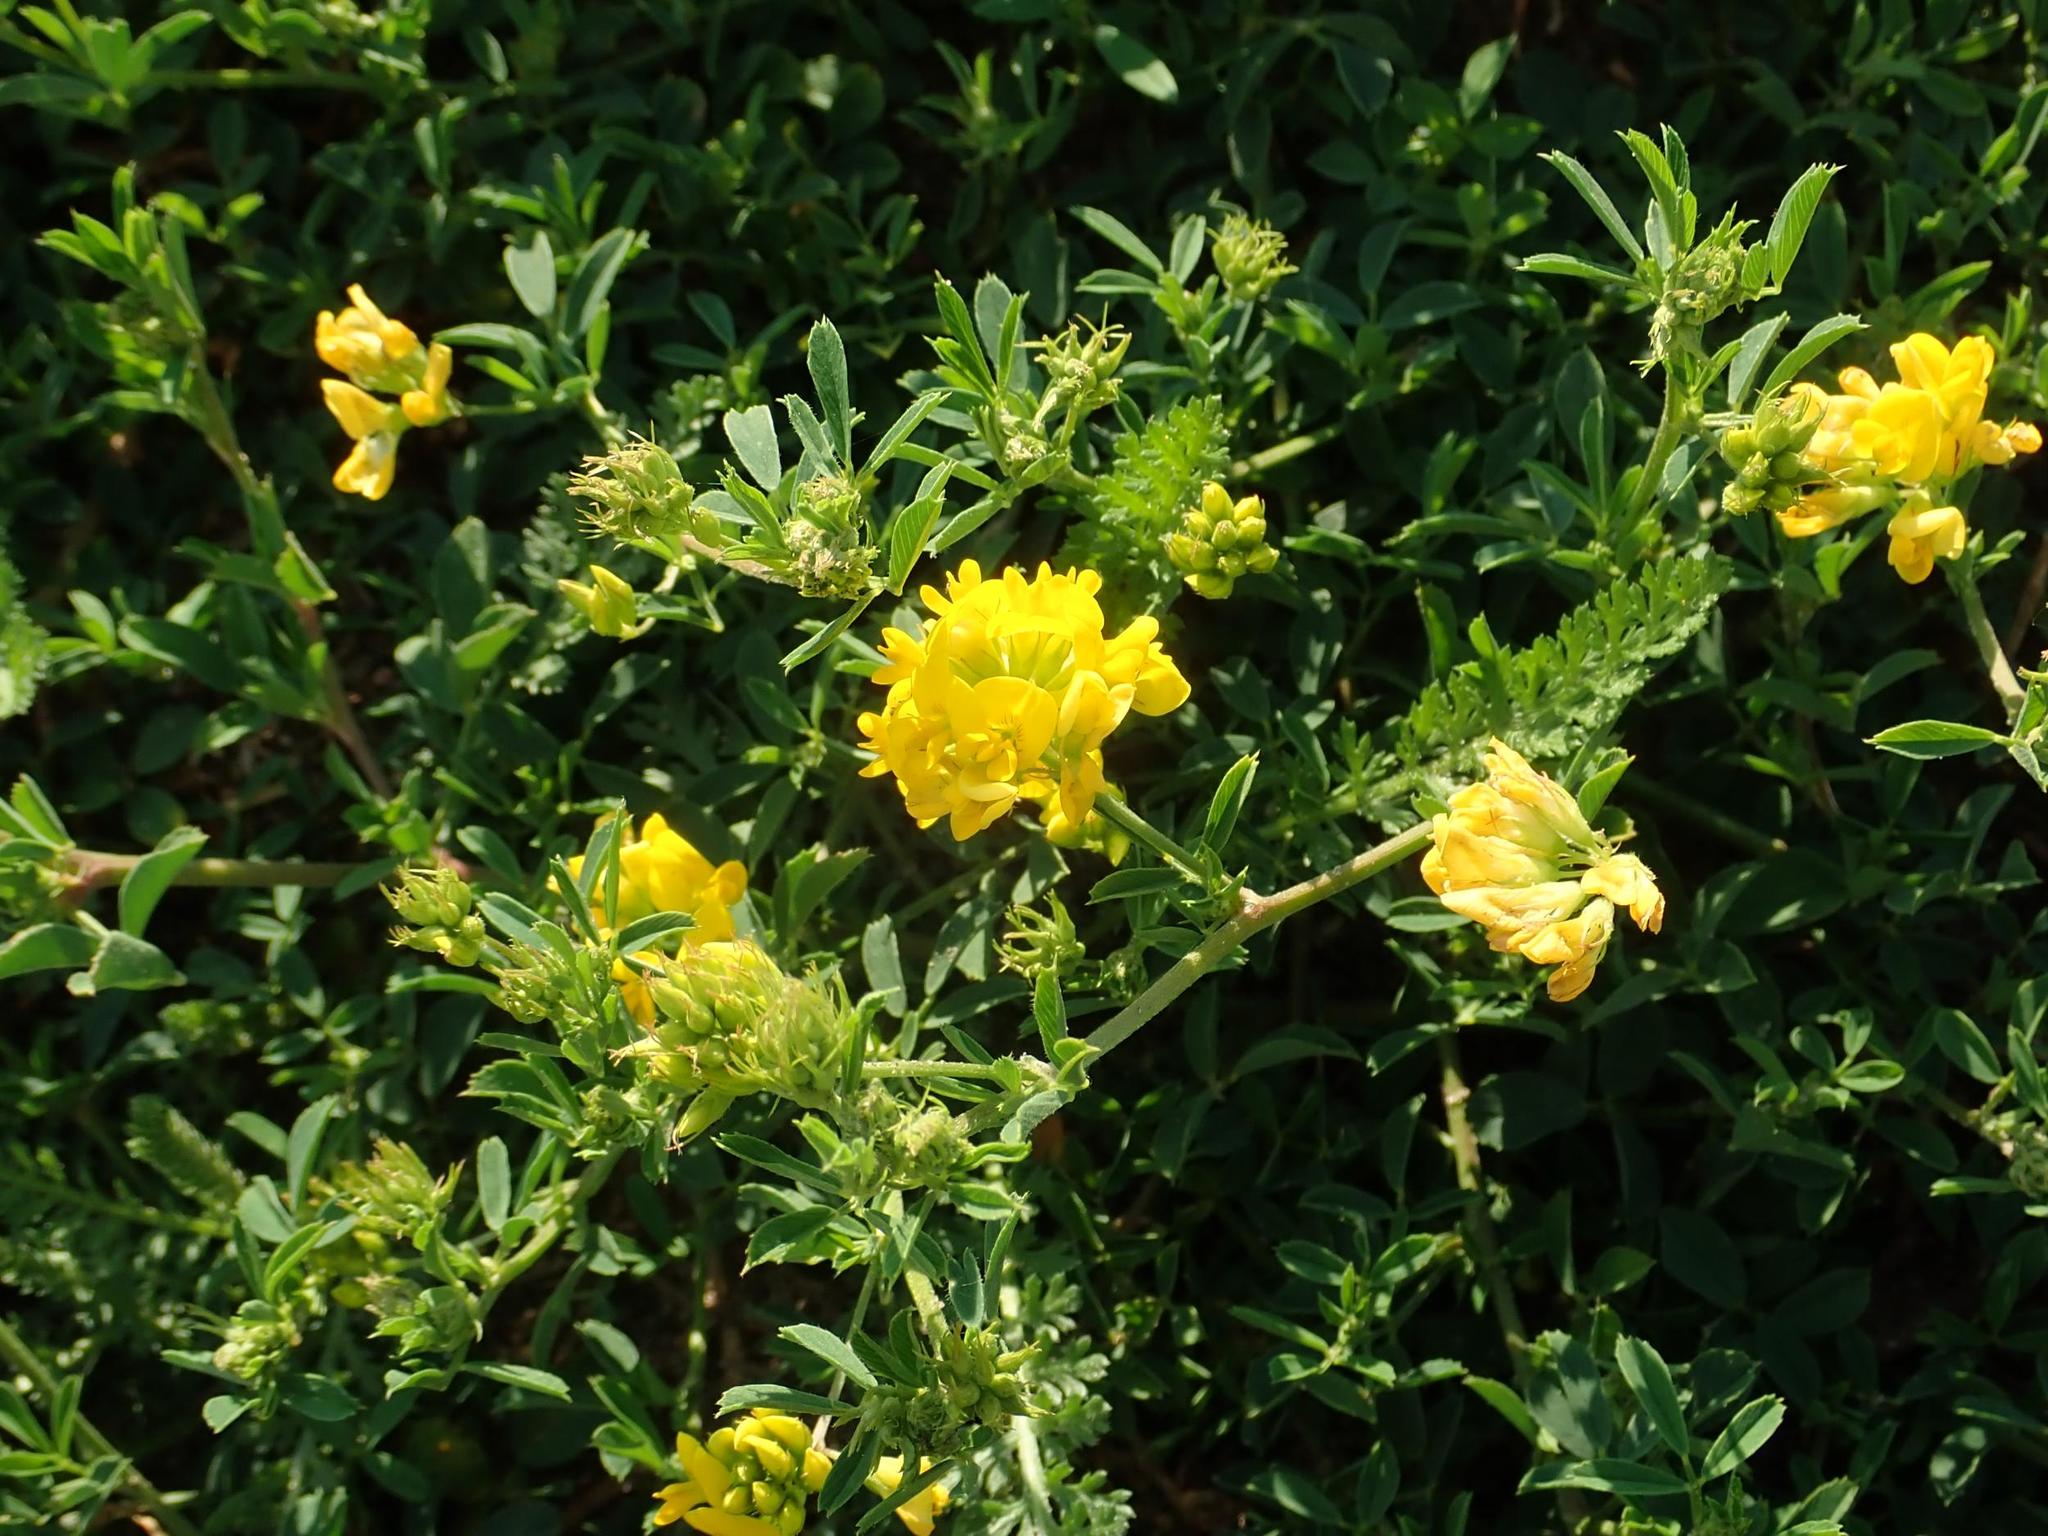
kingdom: Plantae
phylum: Tracheophyta
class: Magnoliopsida
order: Fabales
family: Fabaceae
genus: Medicago
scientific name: Medicago falcata
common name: Sickle medick
